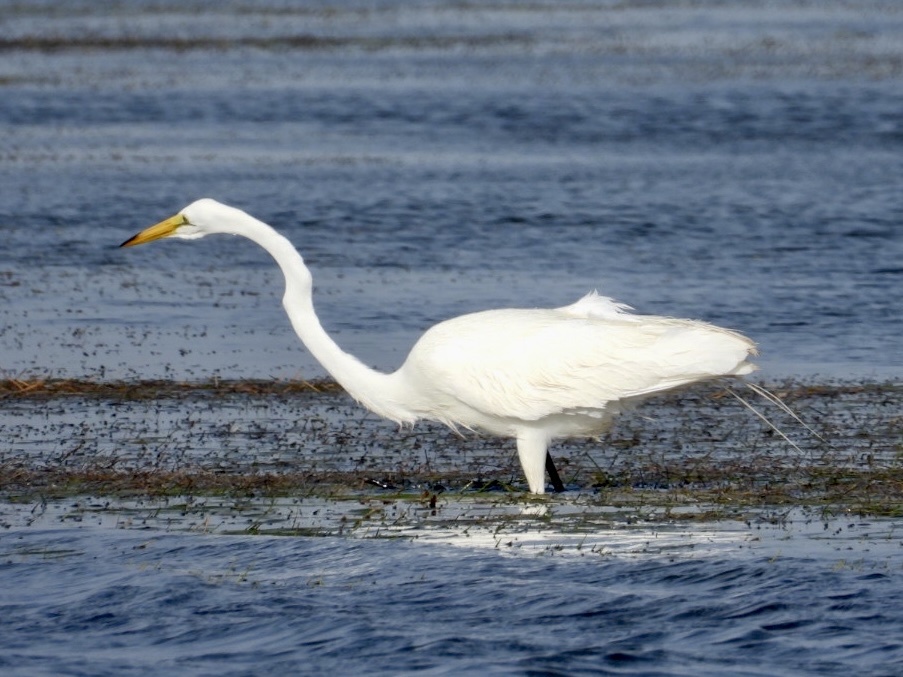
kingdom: Animalia
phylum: Chordata
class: Aves
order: Pelecaniformes
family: Ardeidae
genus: Ardea
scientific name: Ardea alba
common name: Great egret
